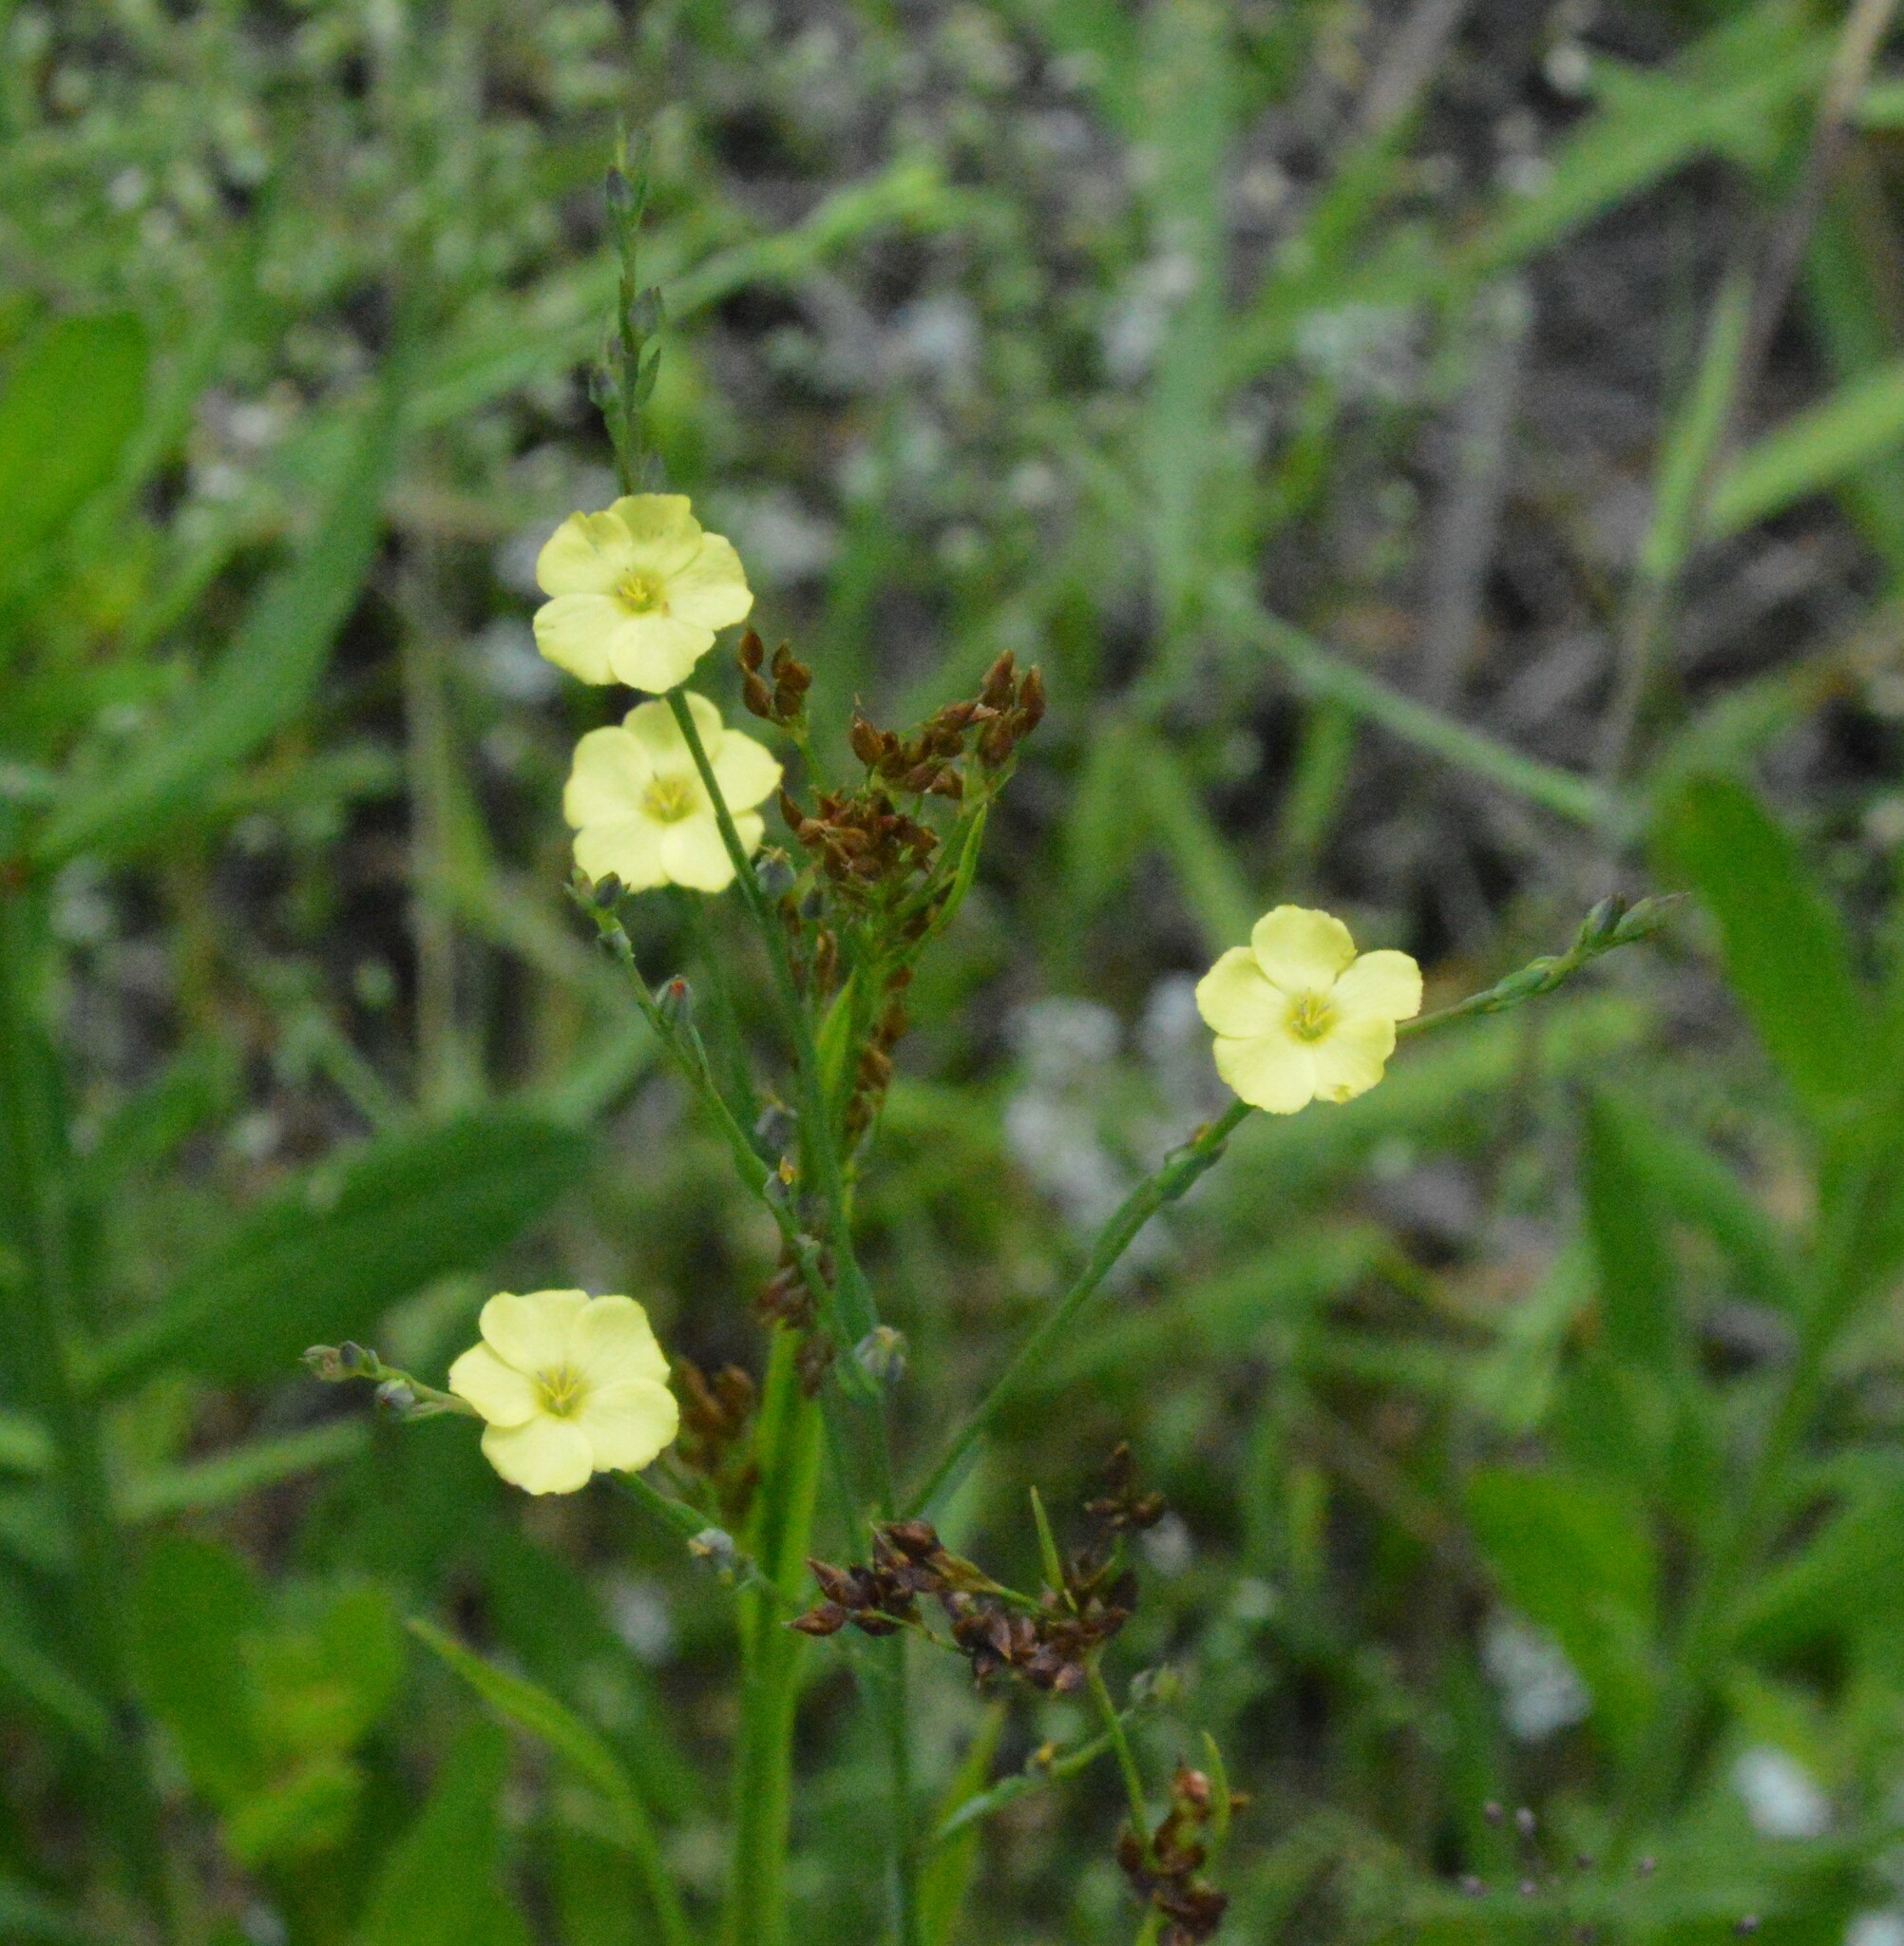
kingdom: Plantae
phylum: Tracheophyta
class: Magnoliopsida
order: Malpighiales
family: Linaceae
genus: Linum
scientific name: Linum medium
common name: Stiff yellow flax
